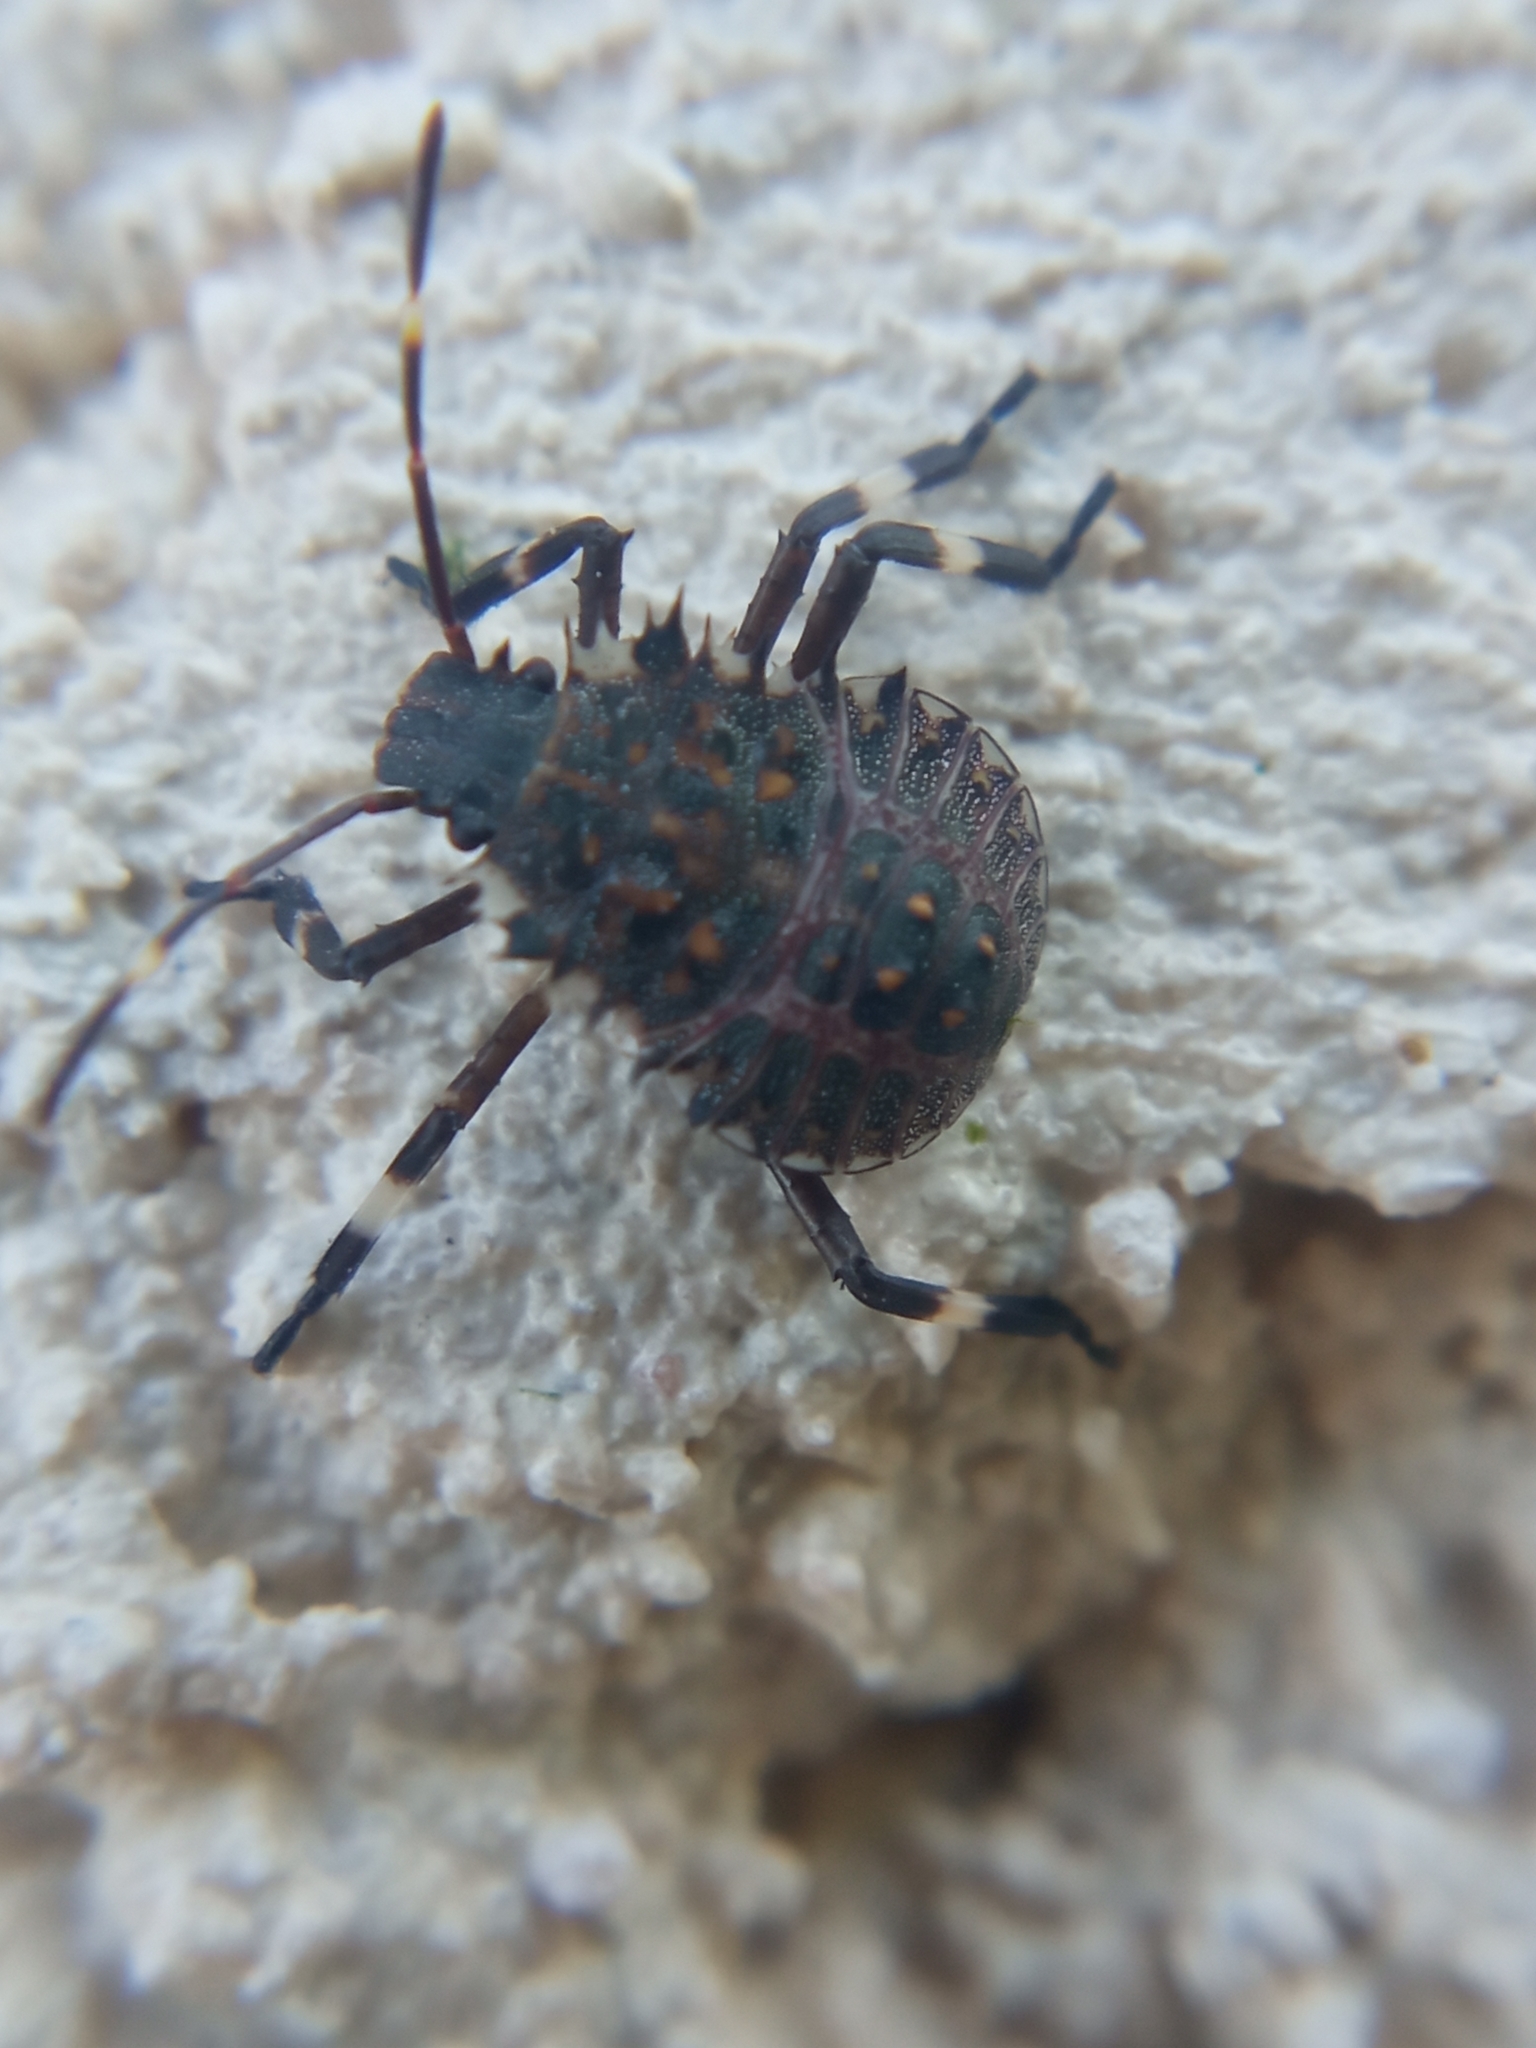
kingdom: Animalia
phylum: Arthropoda
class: Insecta
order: Hemiptera
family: Pentatomidae
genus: Halyomorpha
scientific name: Halyomorpha halys
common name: Brown marmorated stink bug
